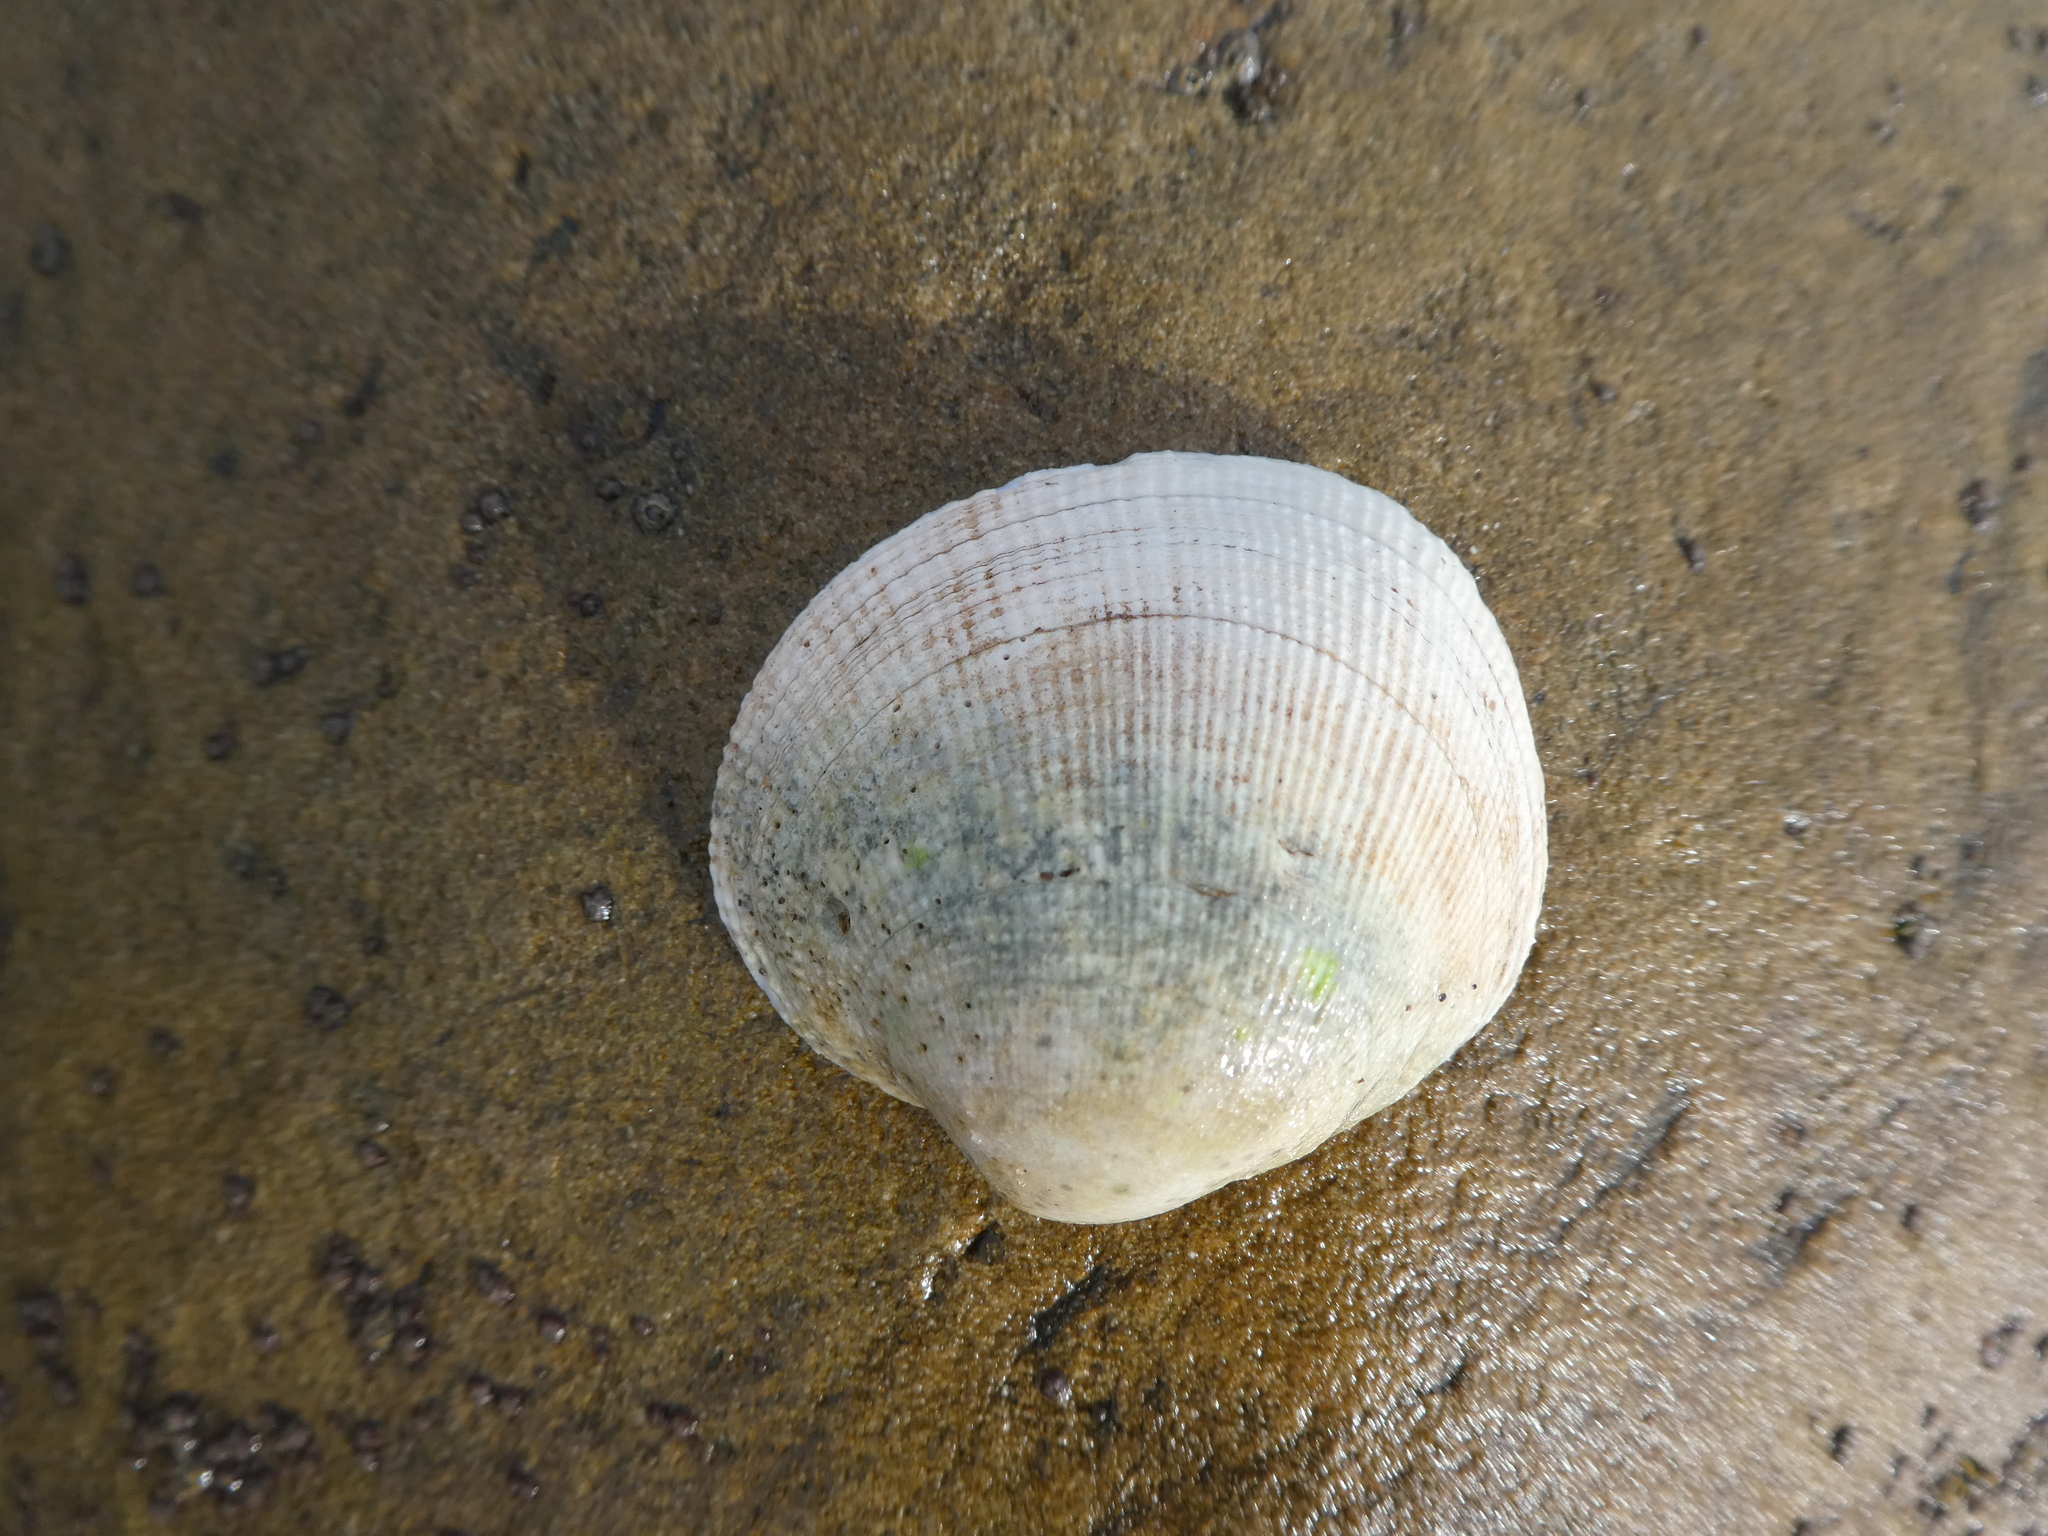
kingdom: Animalia
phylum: Mollusca
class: Bivalvia
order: Venerida
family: Veneridae
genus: Leukoma
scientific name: Leukoma staminea
